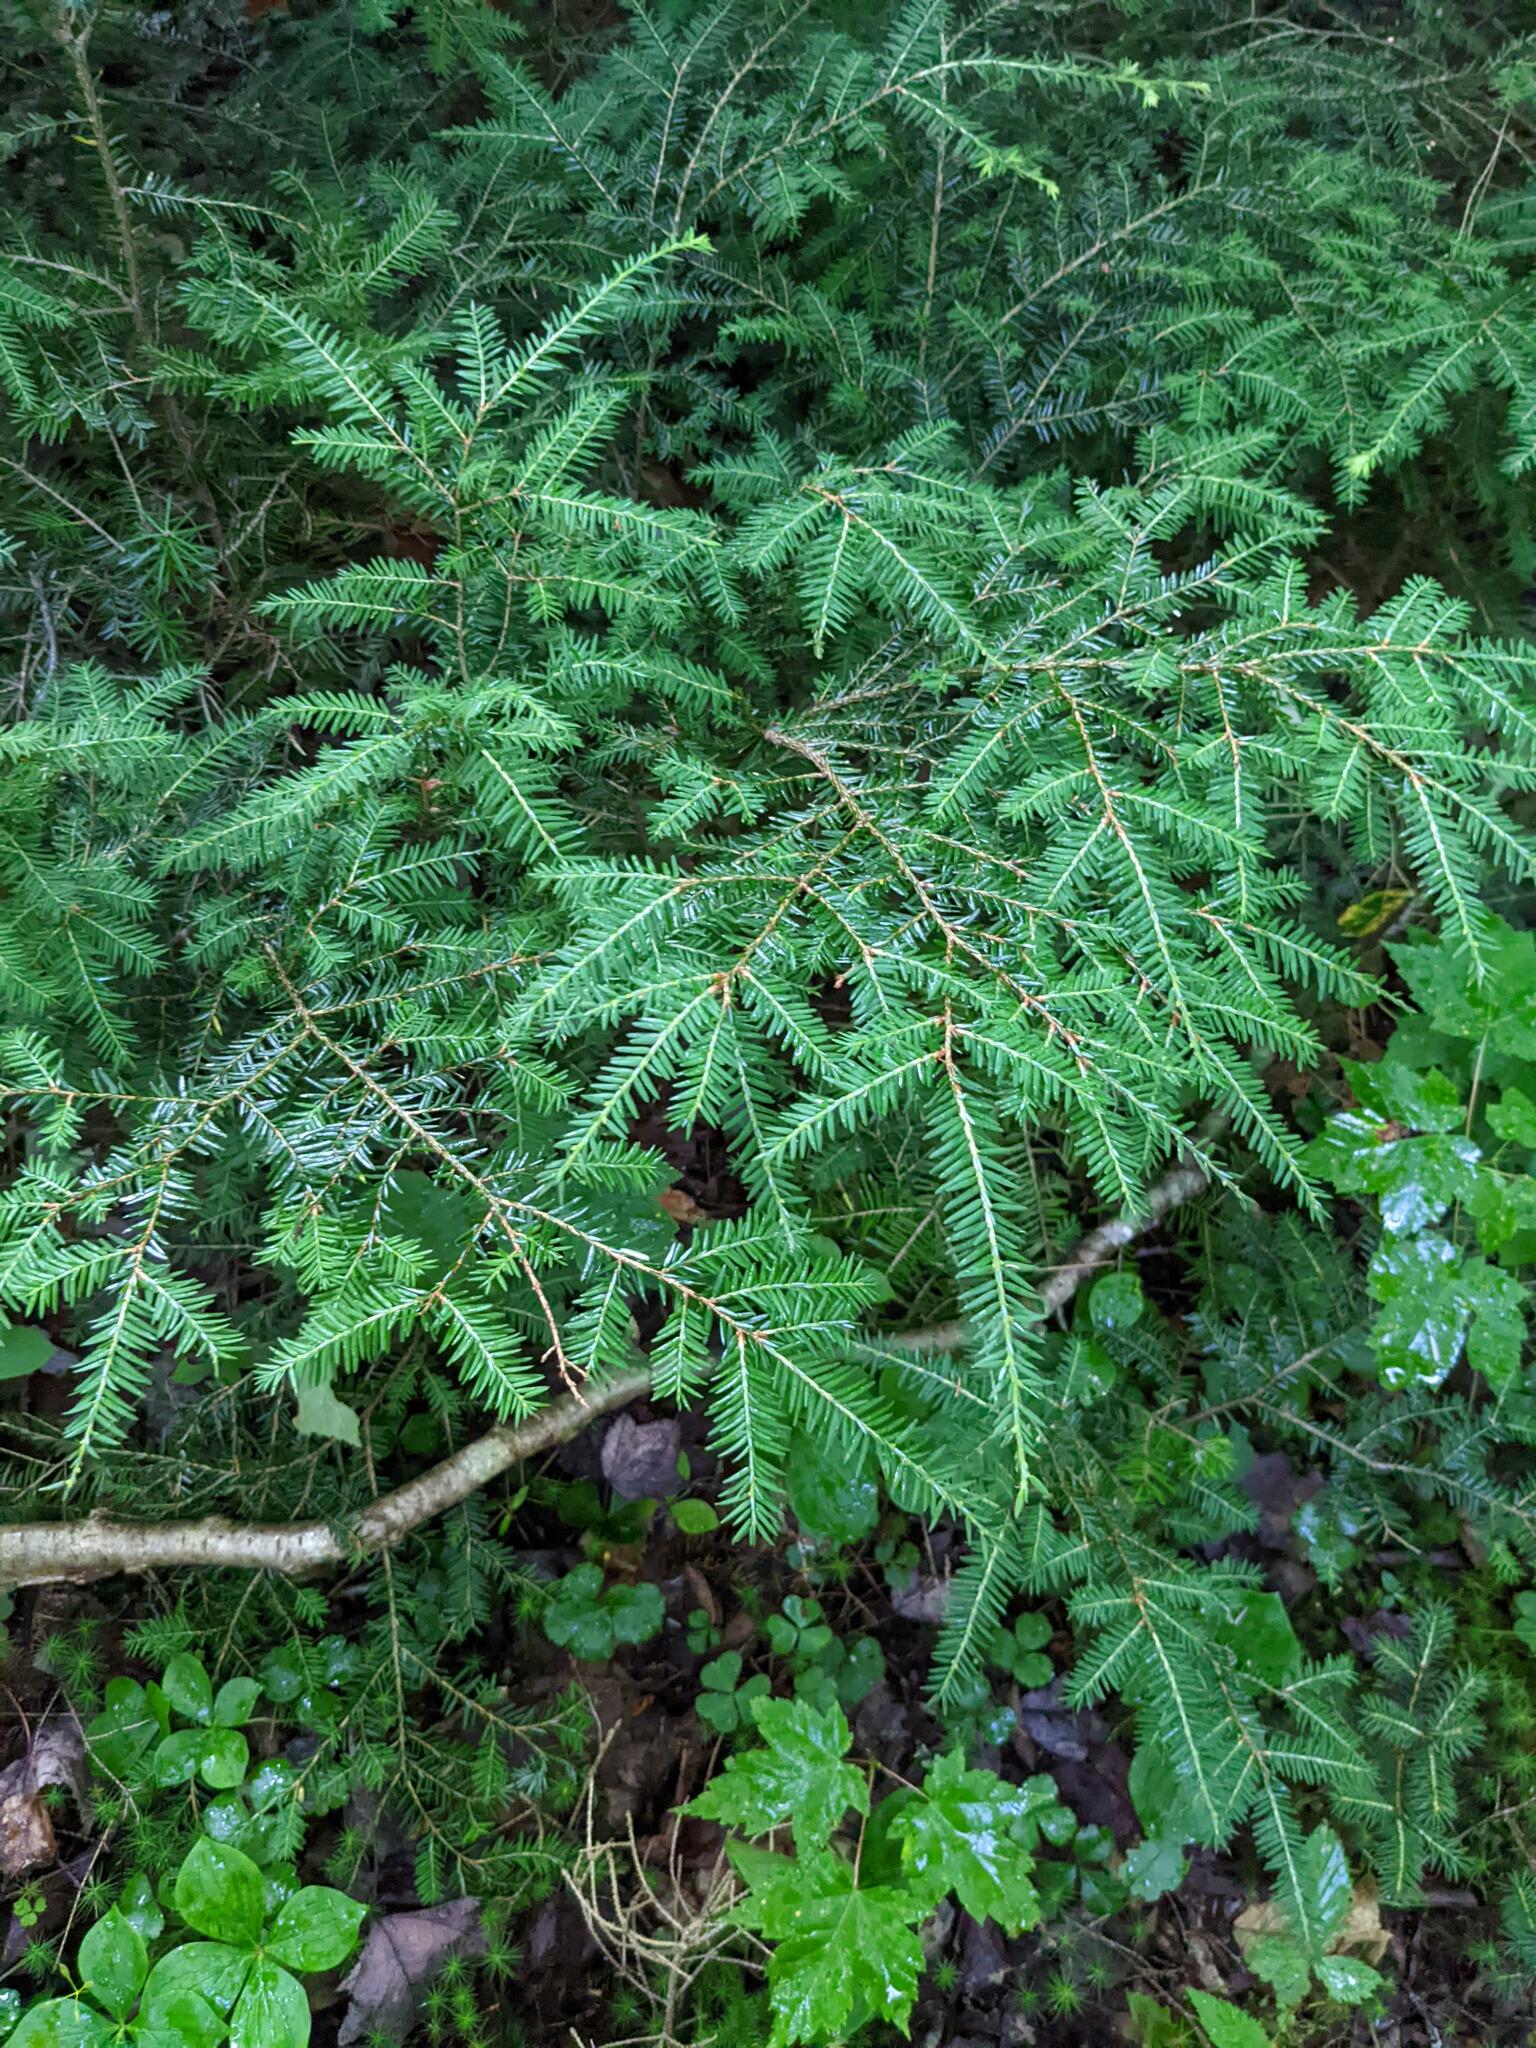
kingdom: Plantae
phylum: Tracheophyta
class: Pinopsida
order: Pinales
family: Pinaceae
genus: Tsuga
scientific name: Tsuga canadensis
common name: Eastern hemlock
